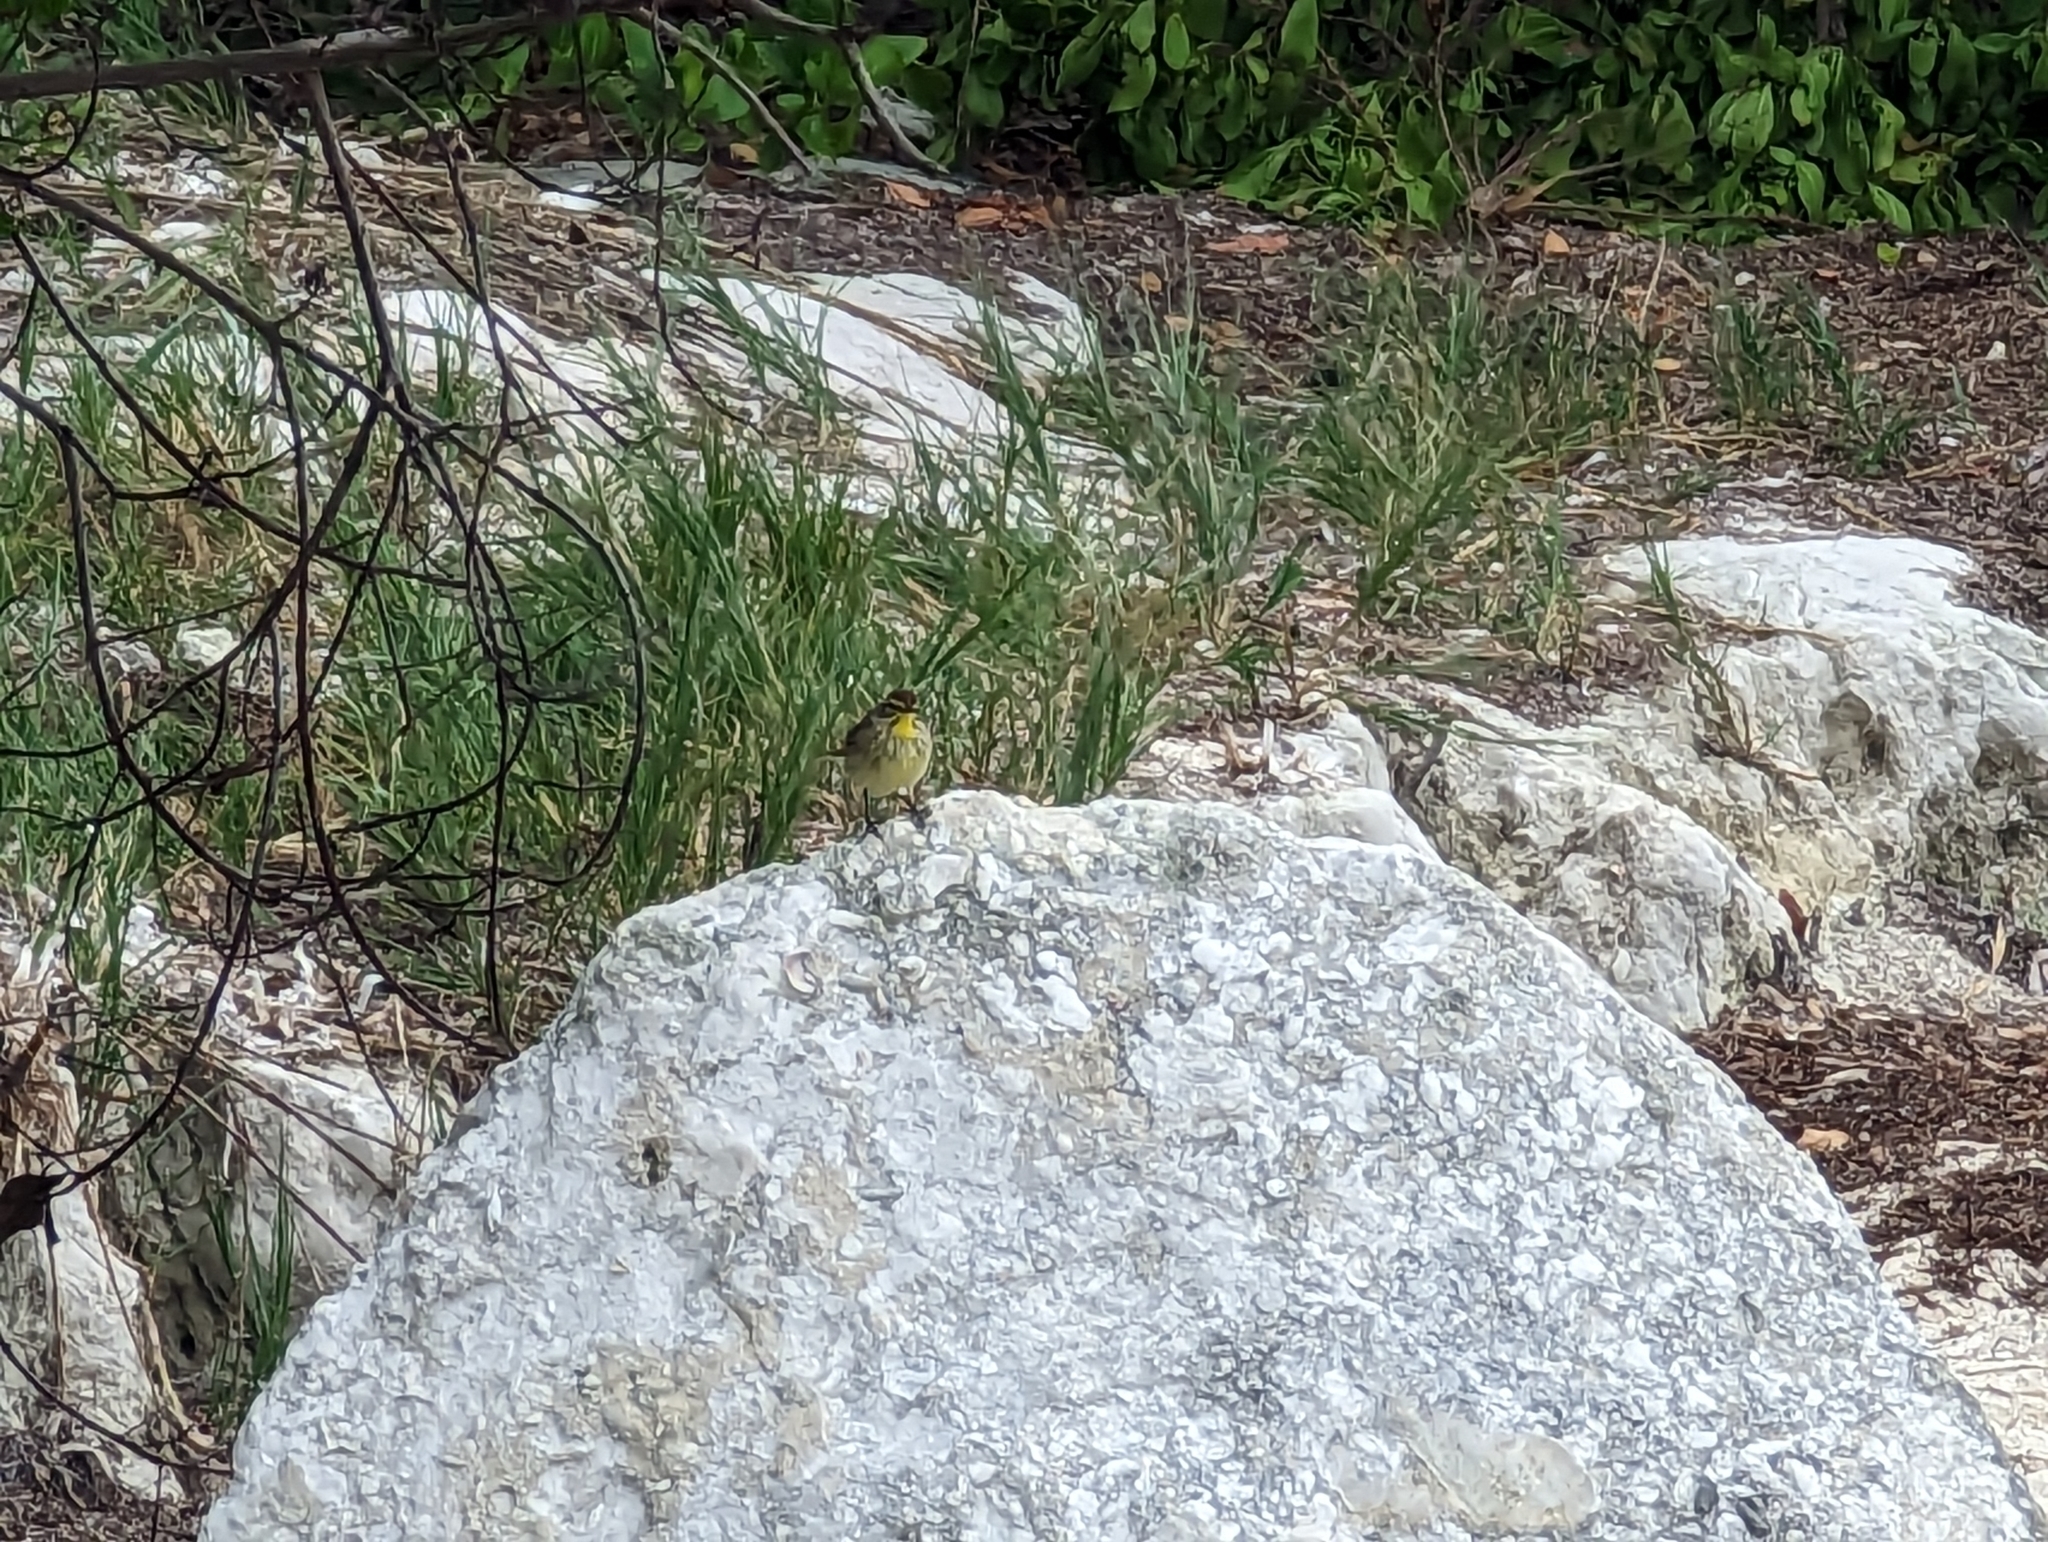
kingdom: Animalia
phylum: Chordata
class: Aves
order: Passeriformes
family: Parulidae
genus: Setophaga
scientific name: Setophaga palmarum
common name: Palm warbler
